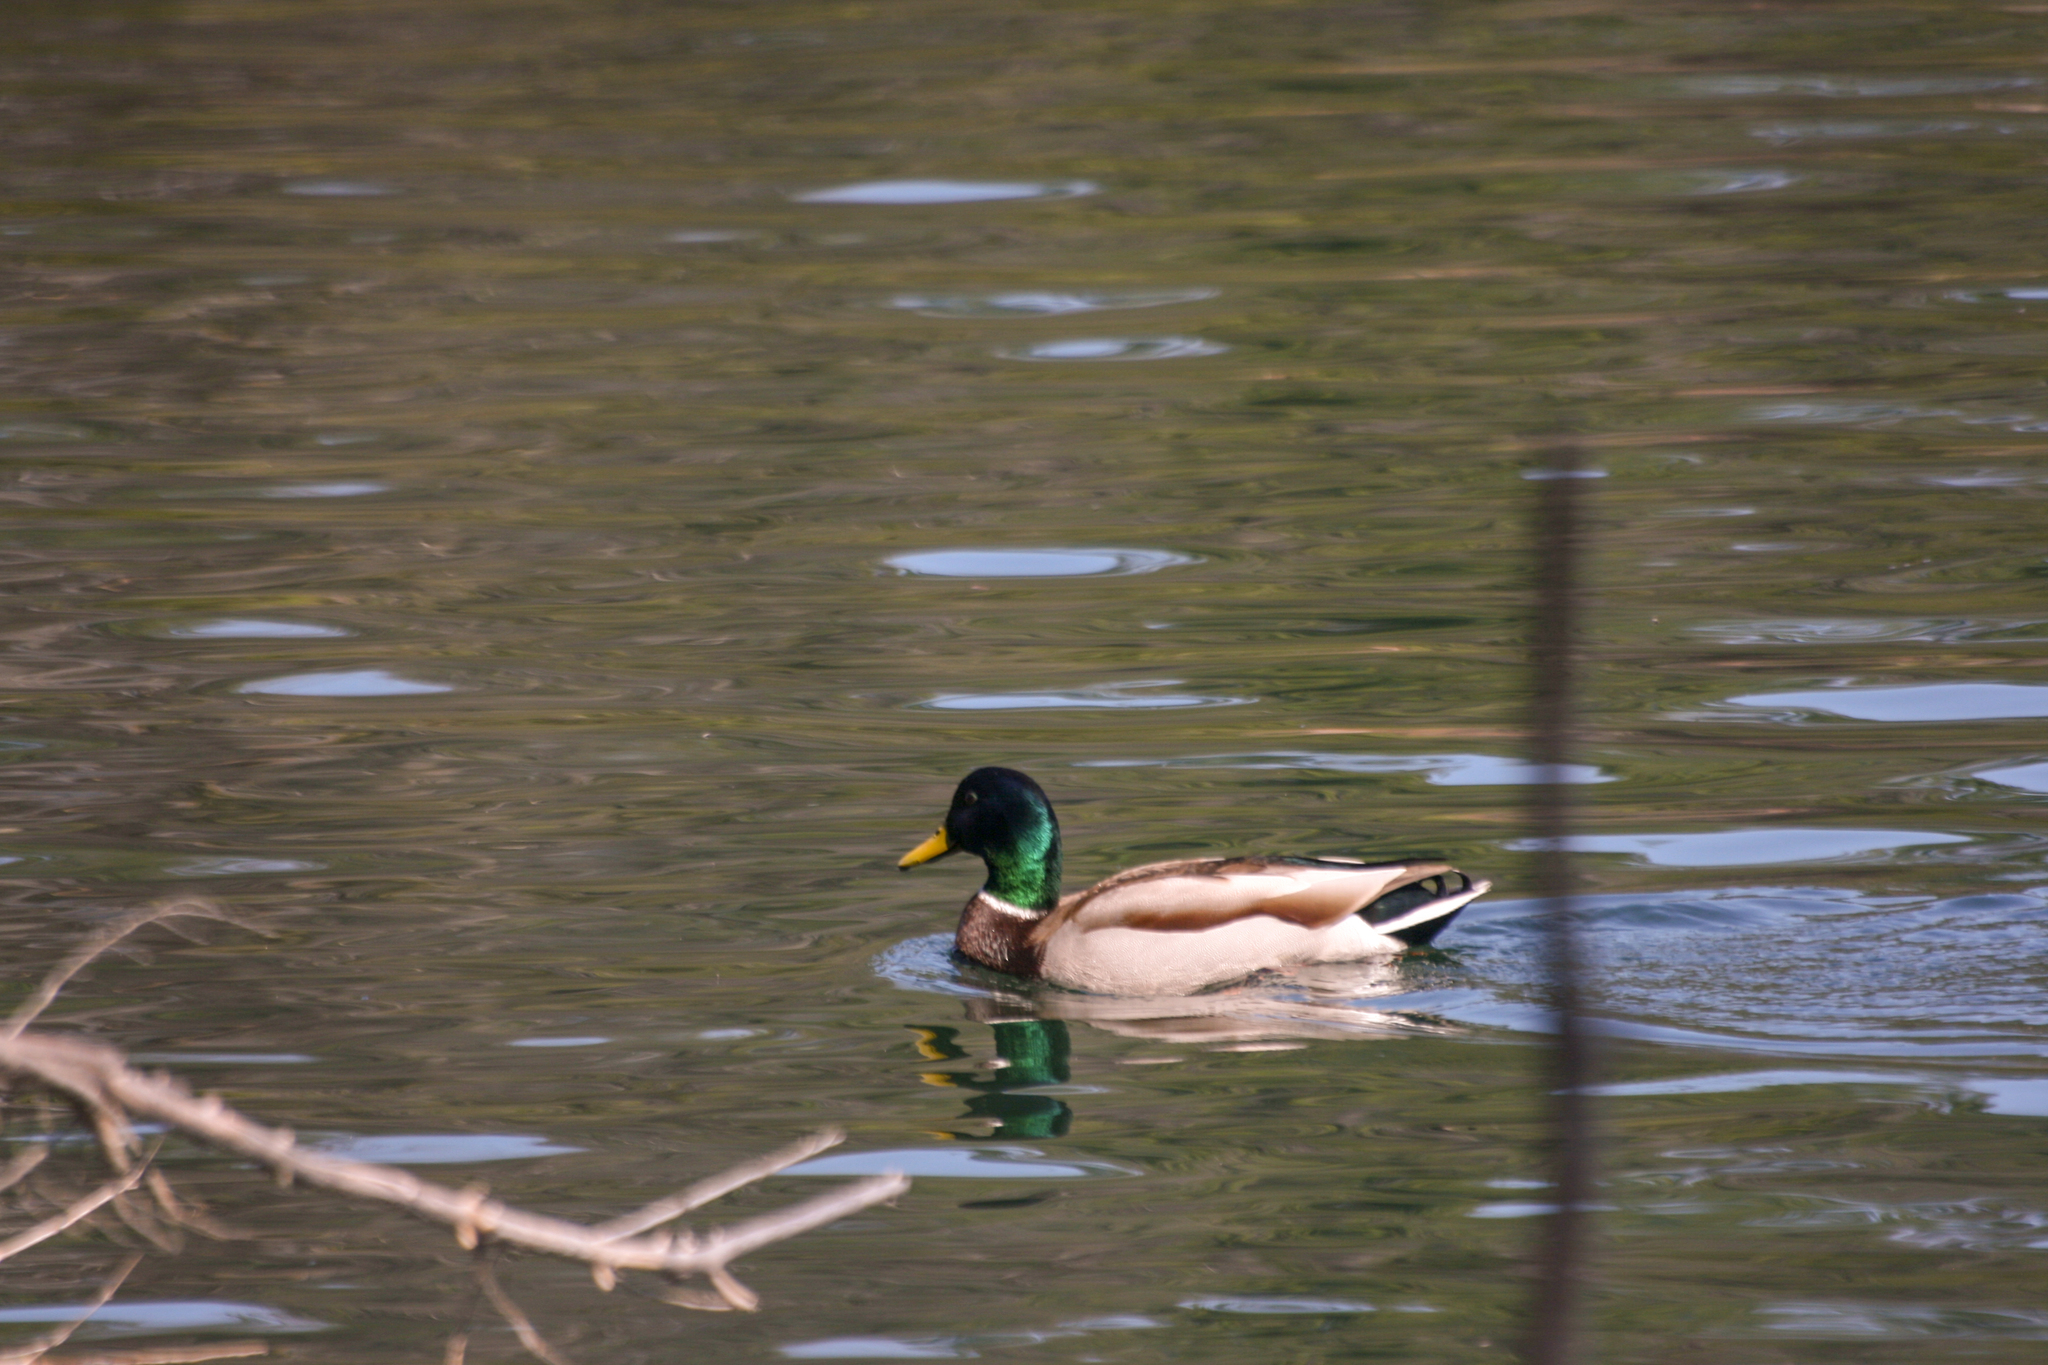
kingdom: Animalia
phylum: Chordata
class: Aves
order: Anseriformes
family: Anatidae
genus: Anas
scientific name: Anas platyrhynchos
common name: Mallard
